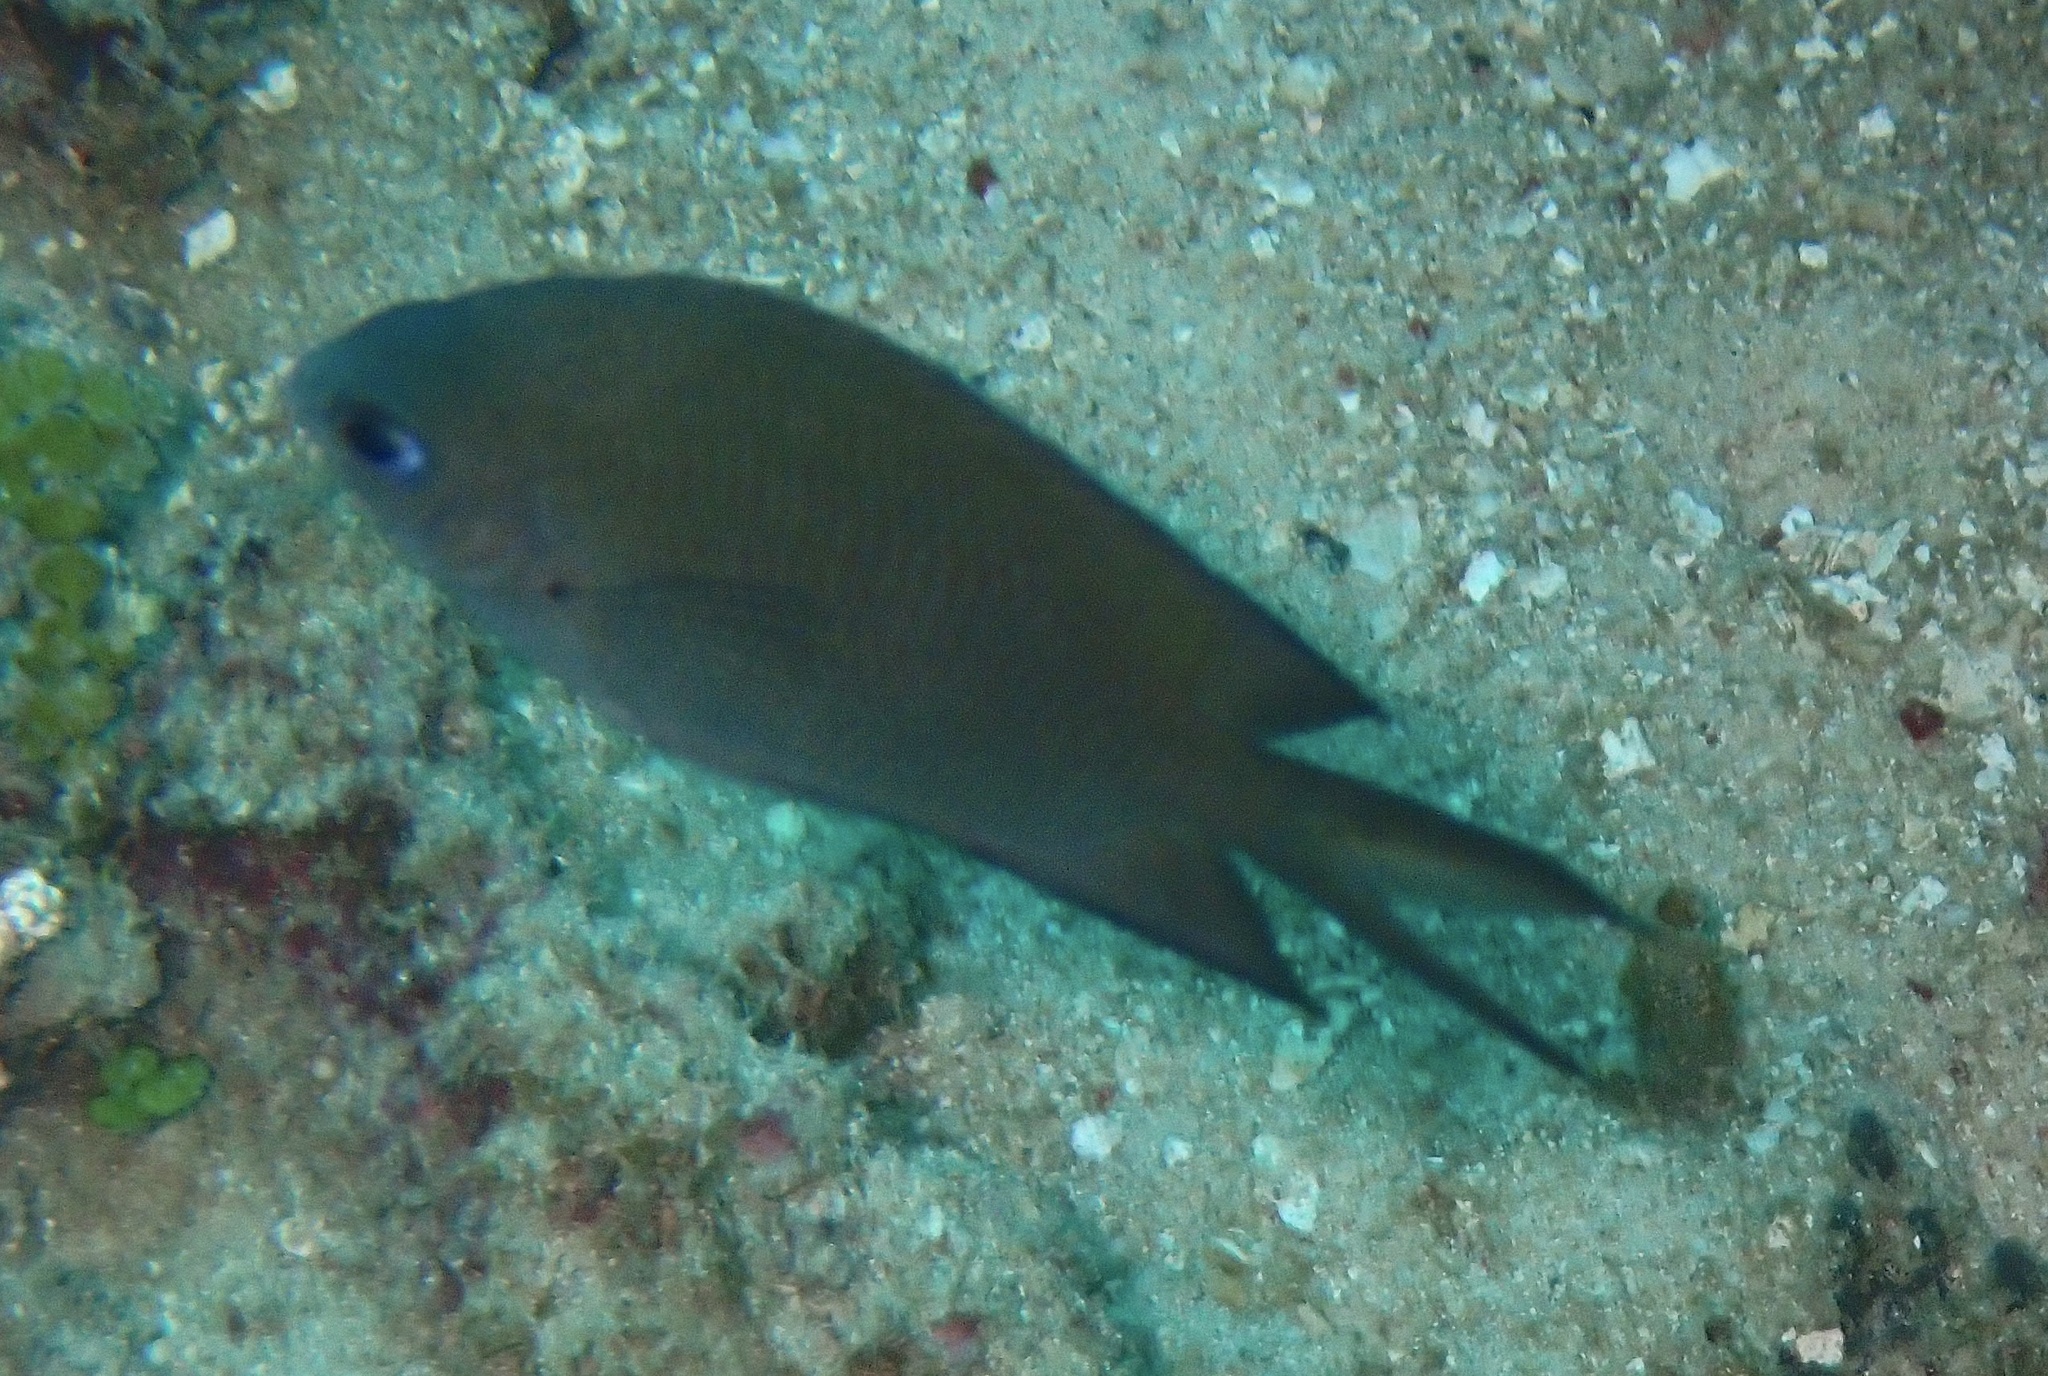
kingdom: Animalia
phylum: Chordata
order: Perciformes
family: Pomacentridae
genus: Acanthochromis
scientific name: Acanthochromis polyacanthus
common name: Spiny chromis
